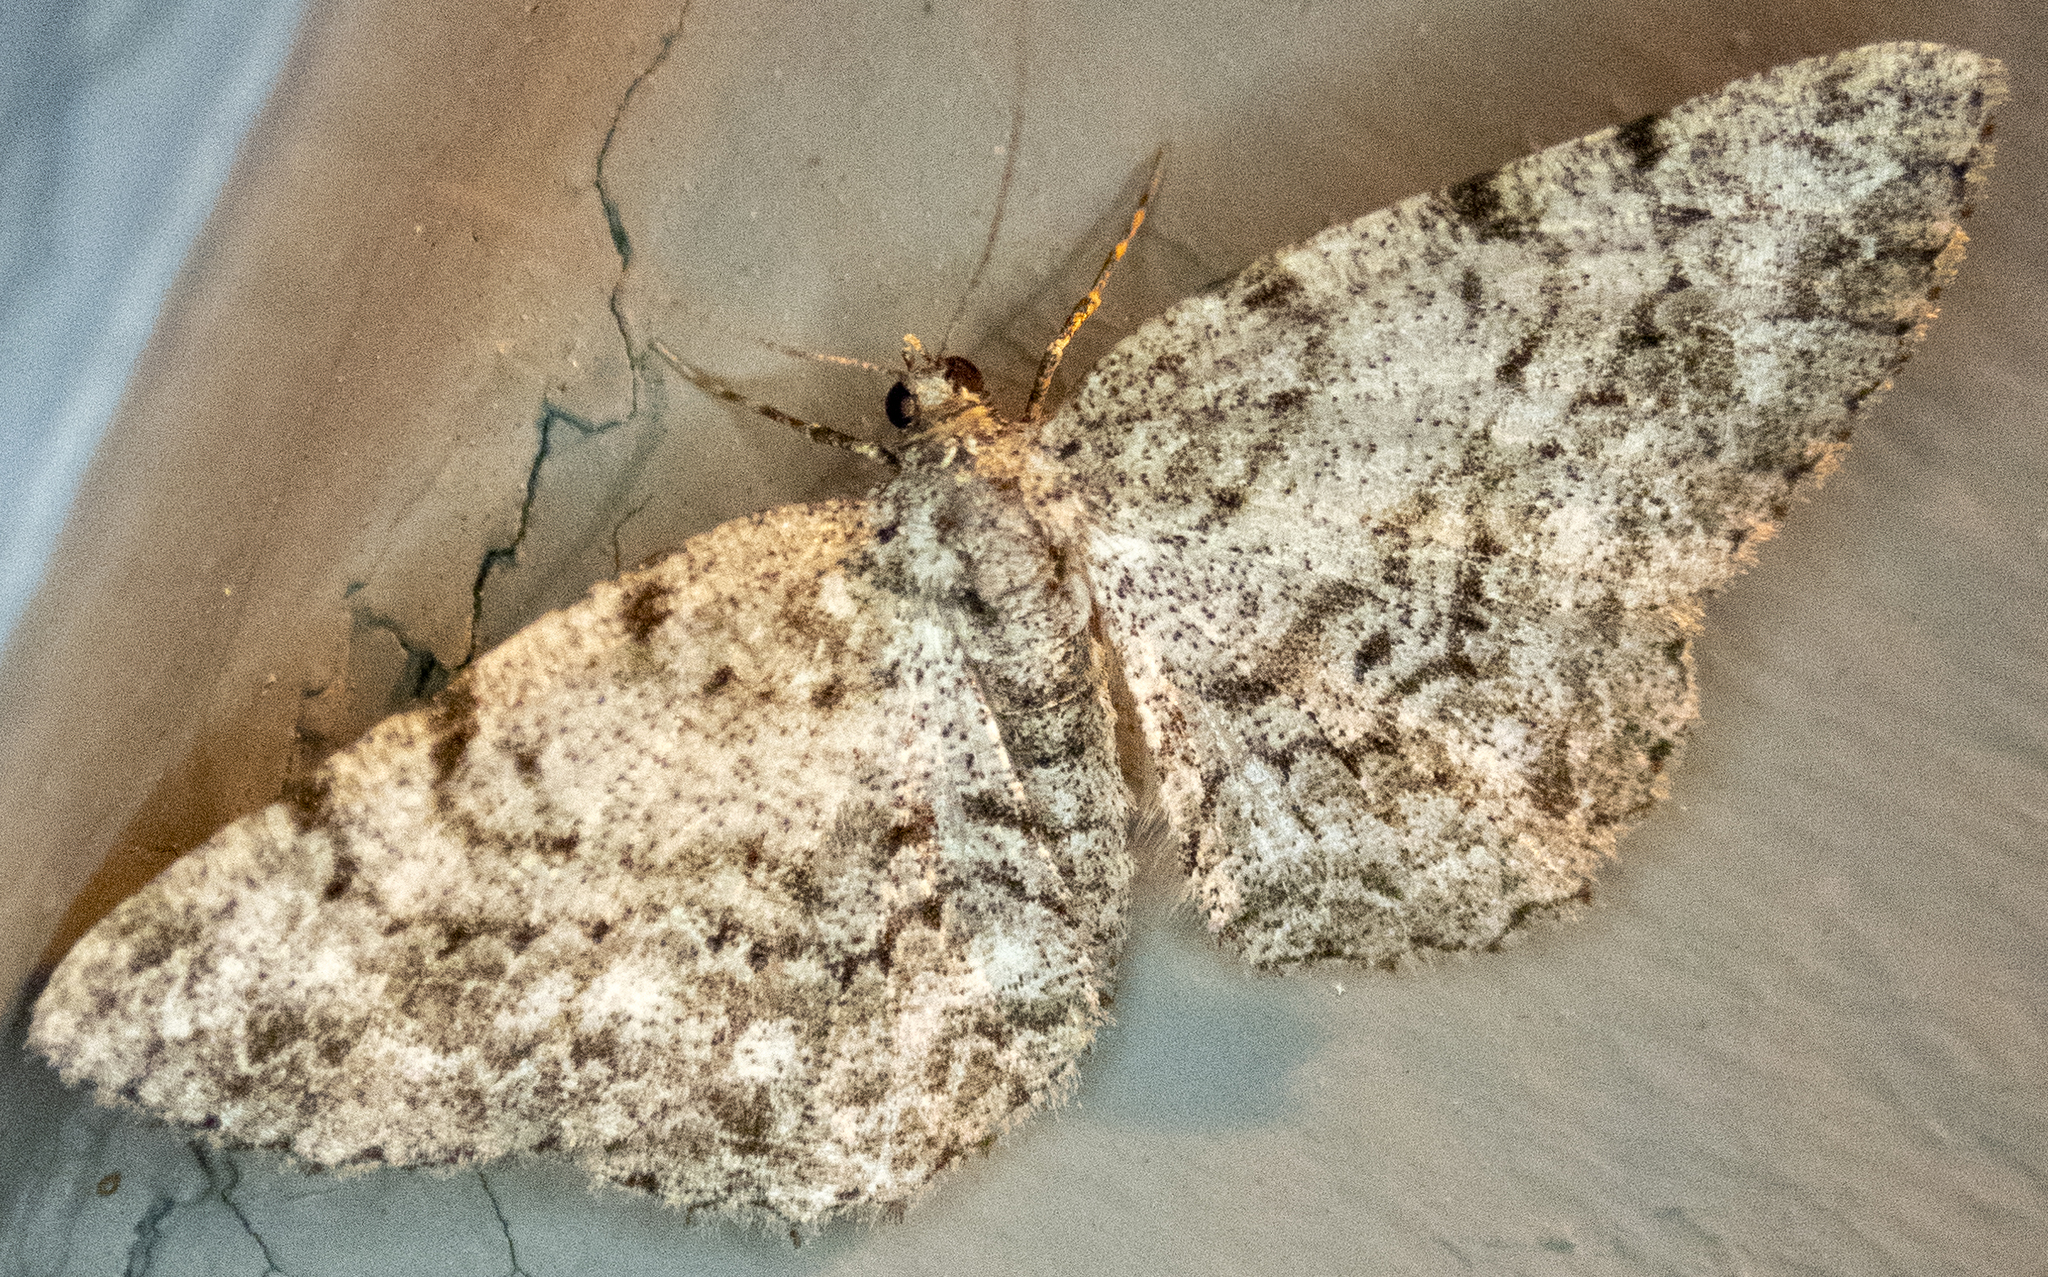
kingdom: Animalia
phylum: Arthropoda
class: Insecta
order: Lepidoptera
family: Geometridae
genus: Protoboarmia
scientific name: Protoboarmia porcelaria
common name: Porcelain gray
